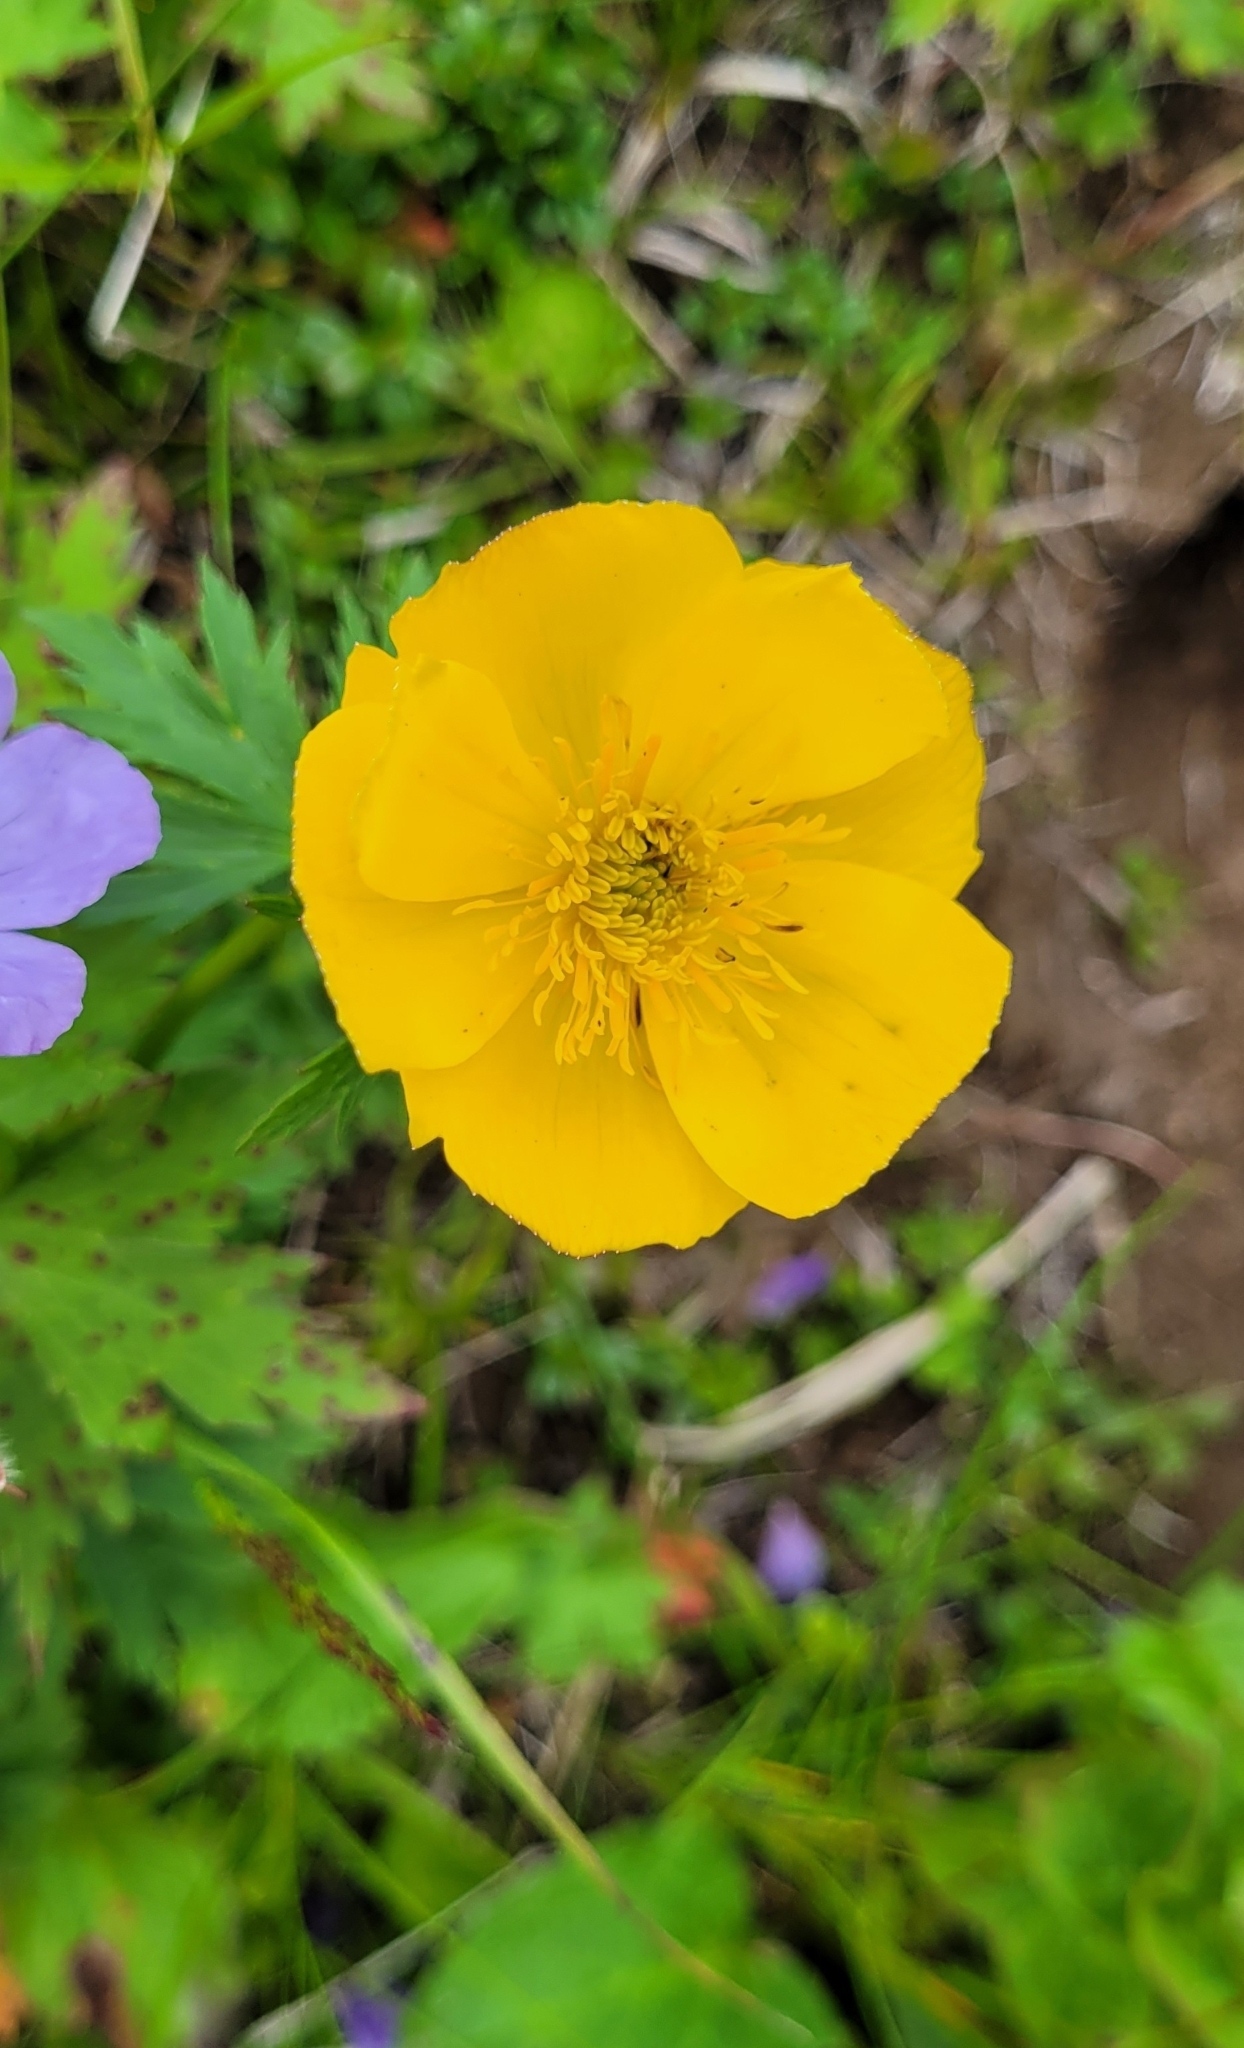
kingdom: Plantae
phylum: Tracheophyta
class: Magnoliopsida
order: Ranunculales
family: Ranunculaceae
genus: Trollius
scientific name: Trollius riederianus
